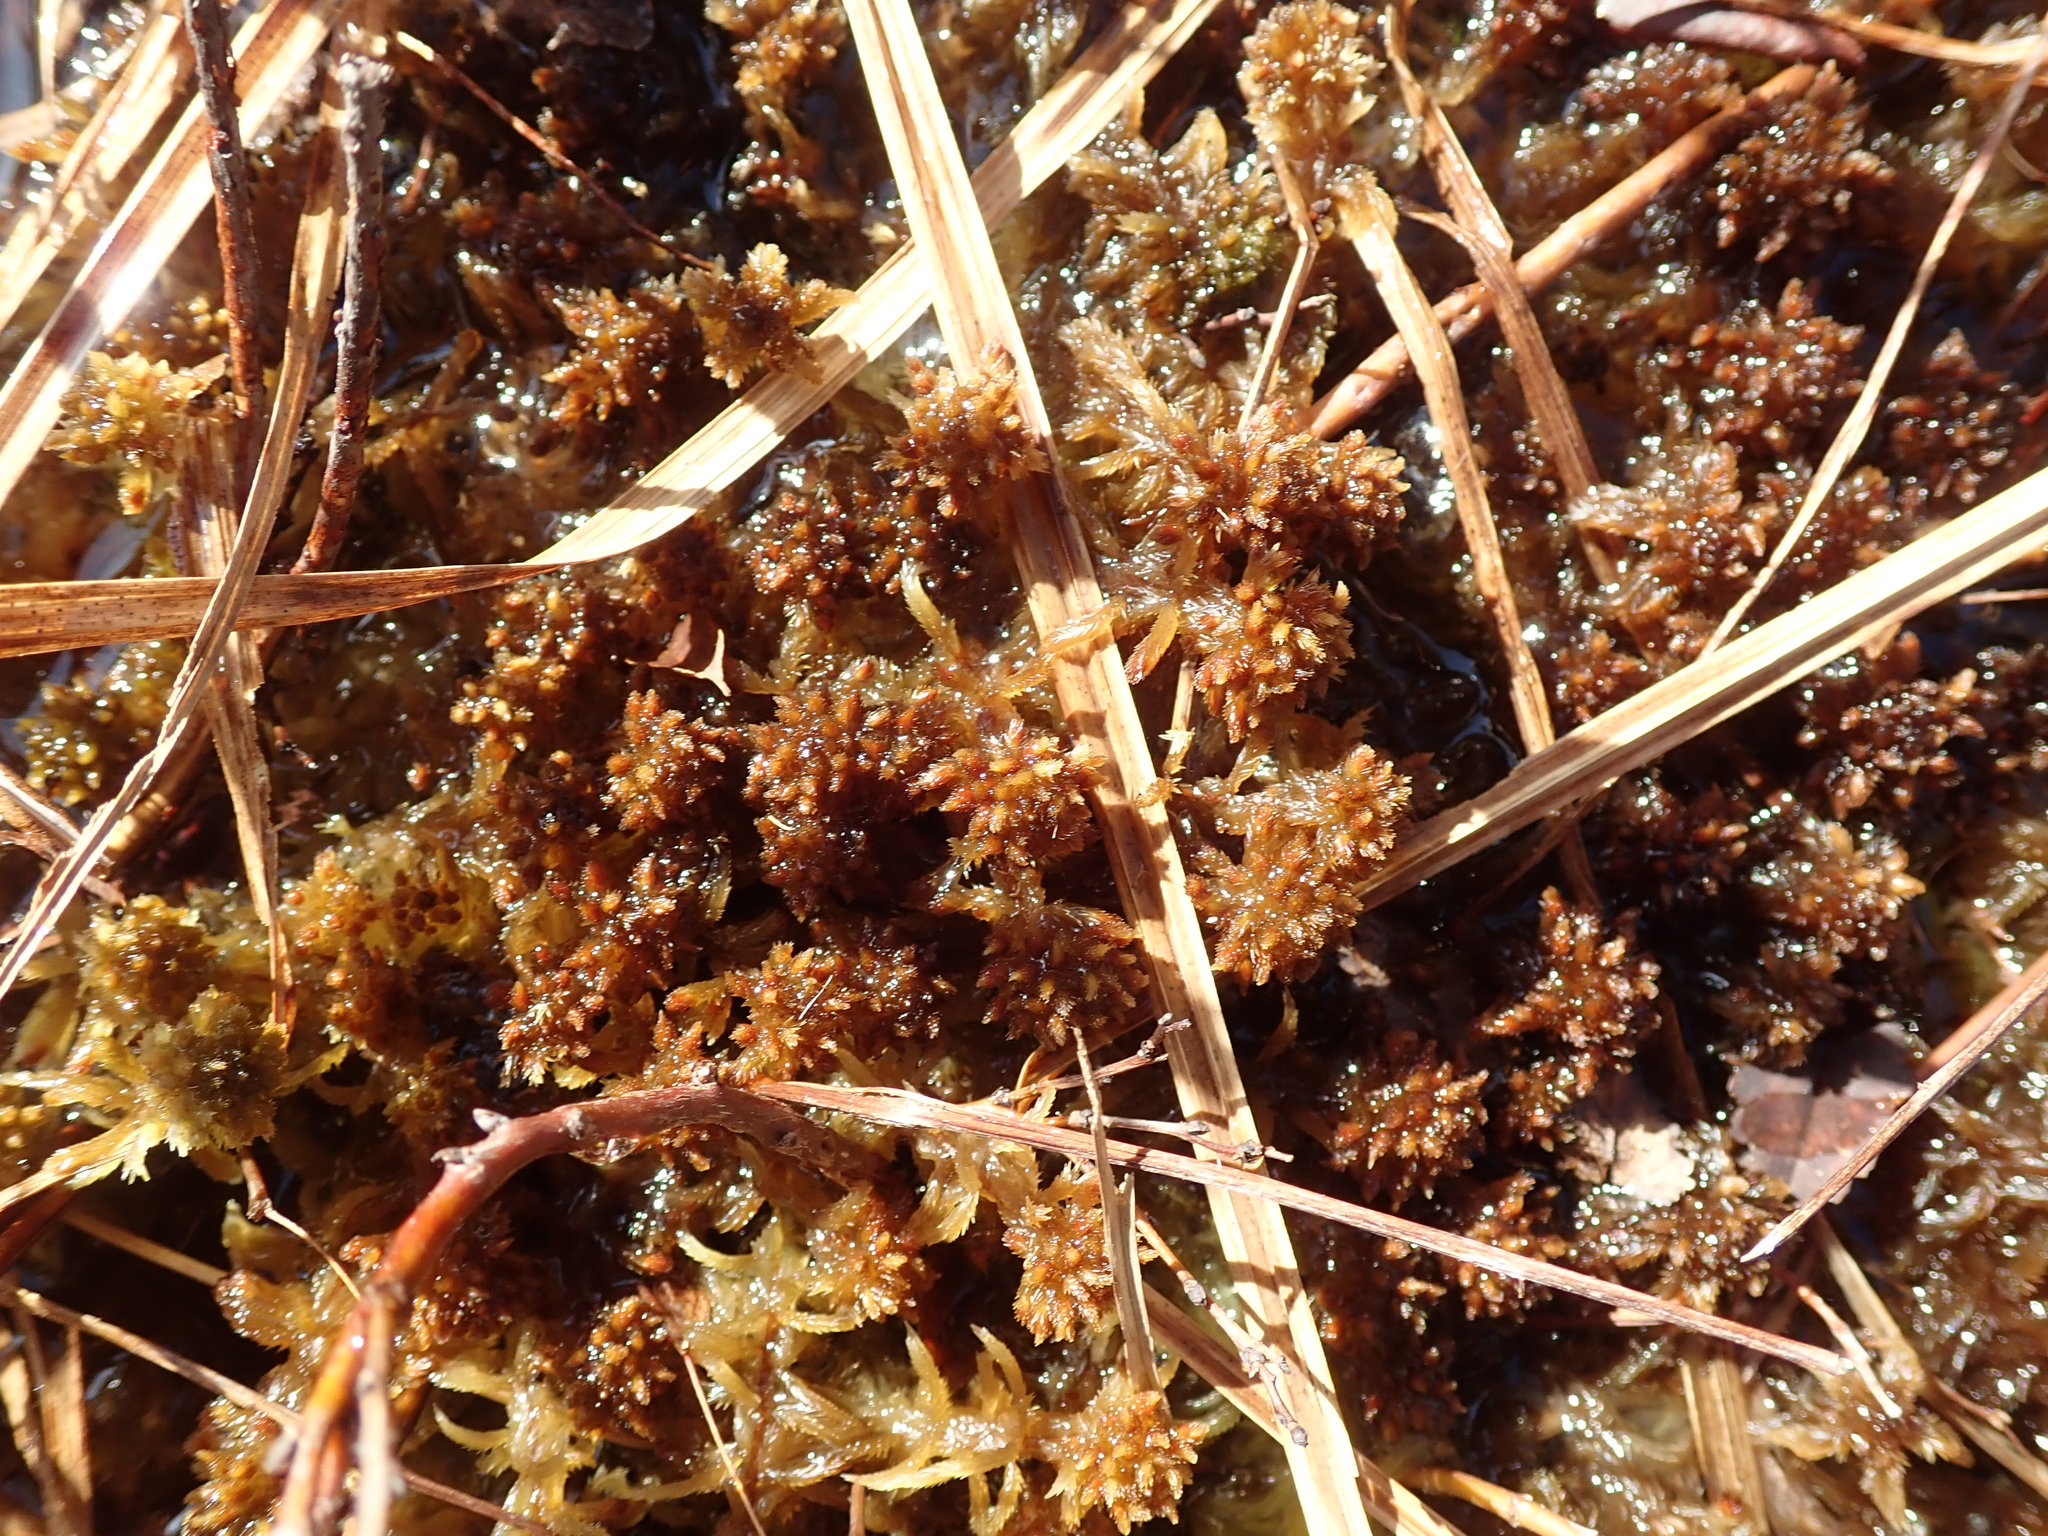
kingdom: Plantae
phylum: Bryophyta
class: Sphagnopsida
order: Sphagnales
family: Sphagnaceae
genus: Sphagnum
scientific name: Sphagnum fuscum
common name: Brown peat moss
